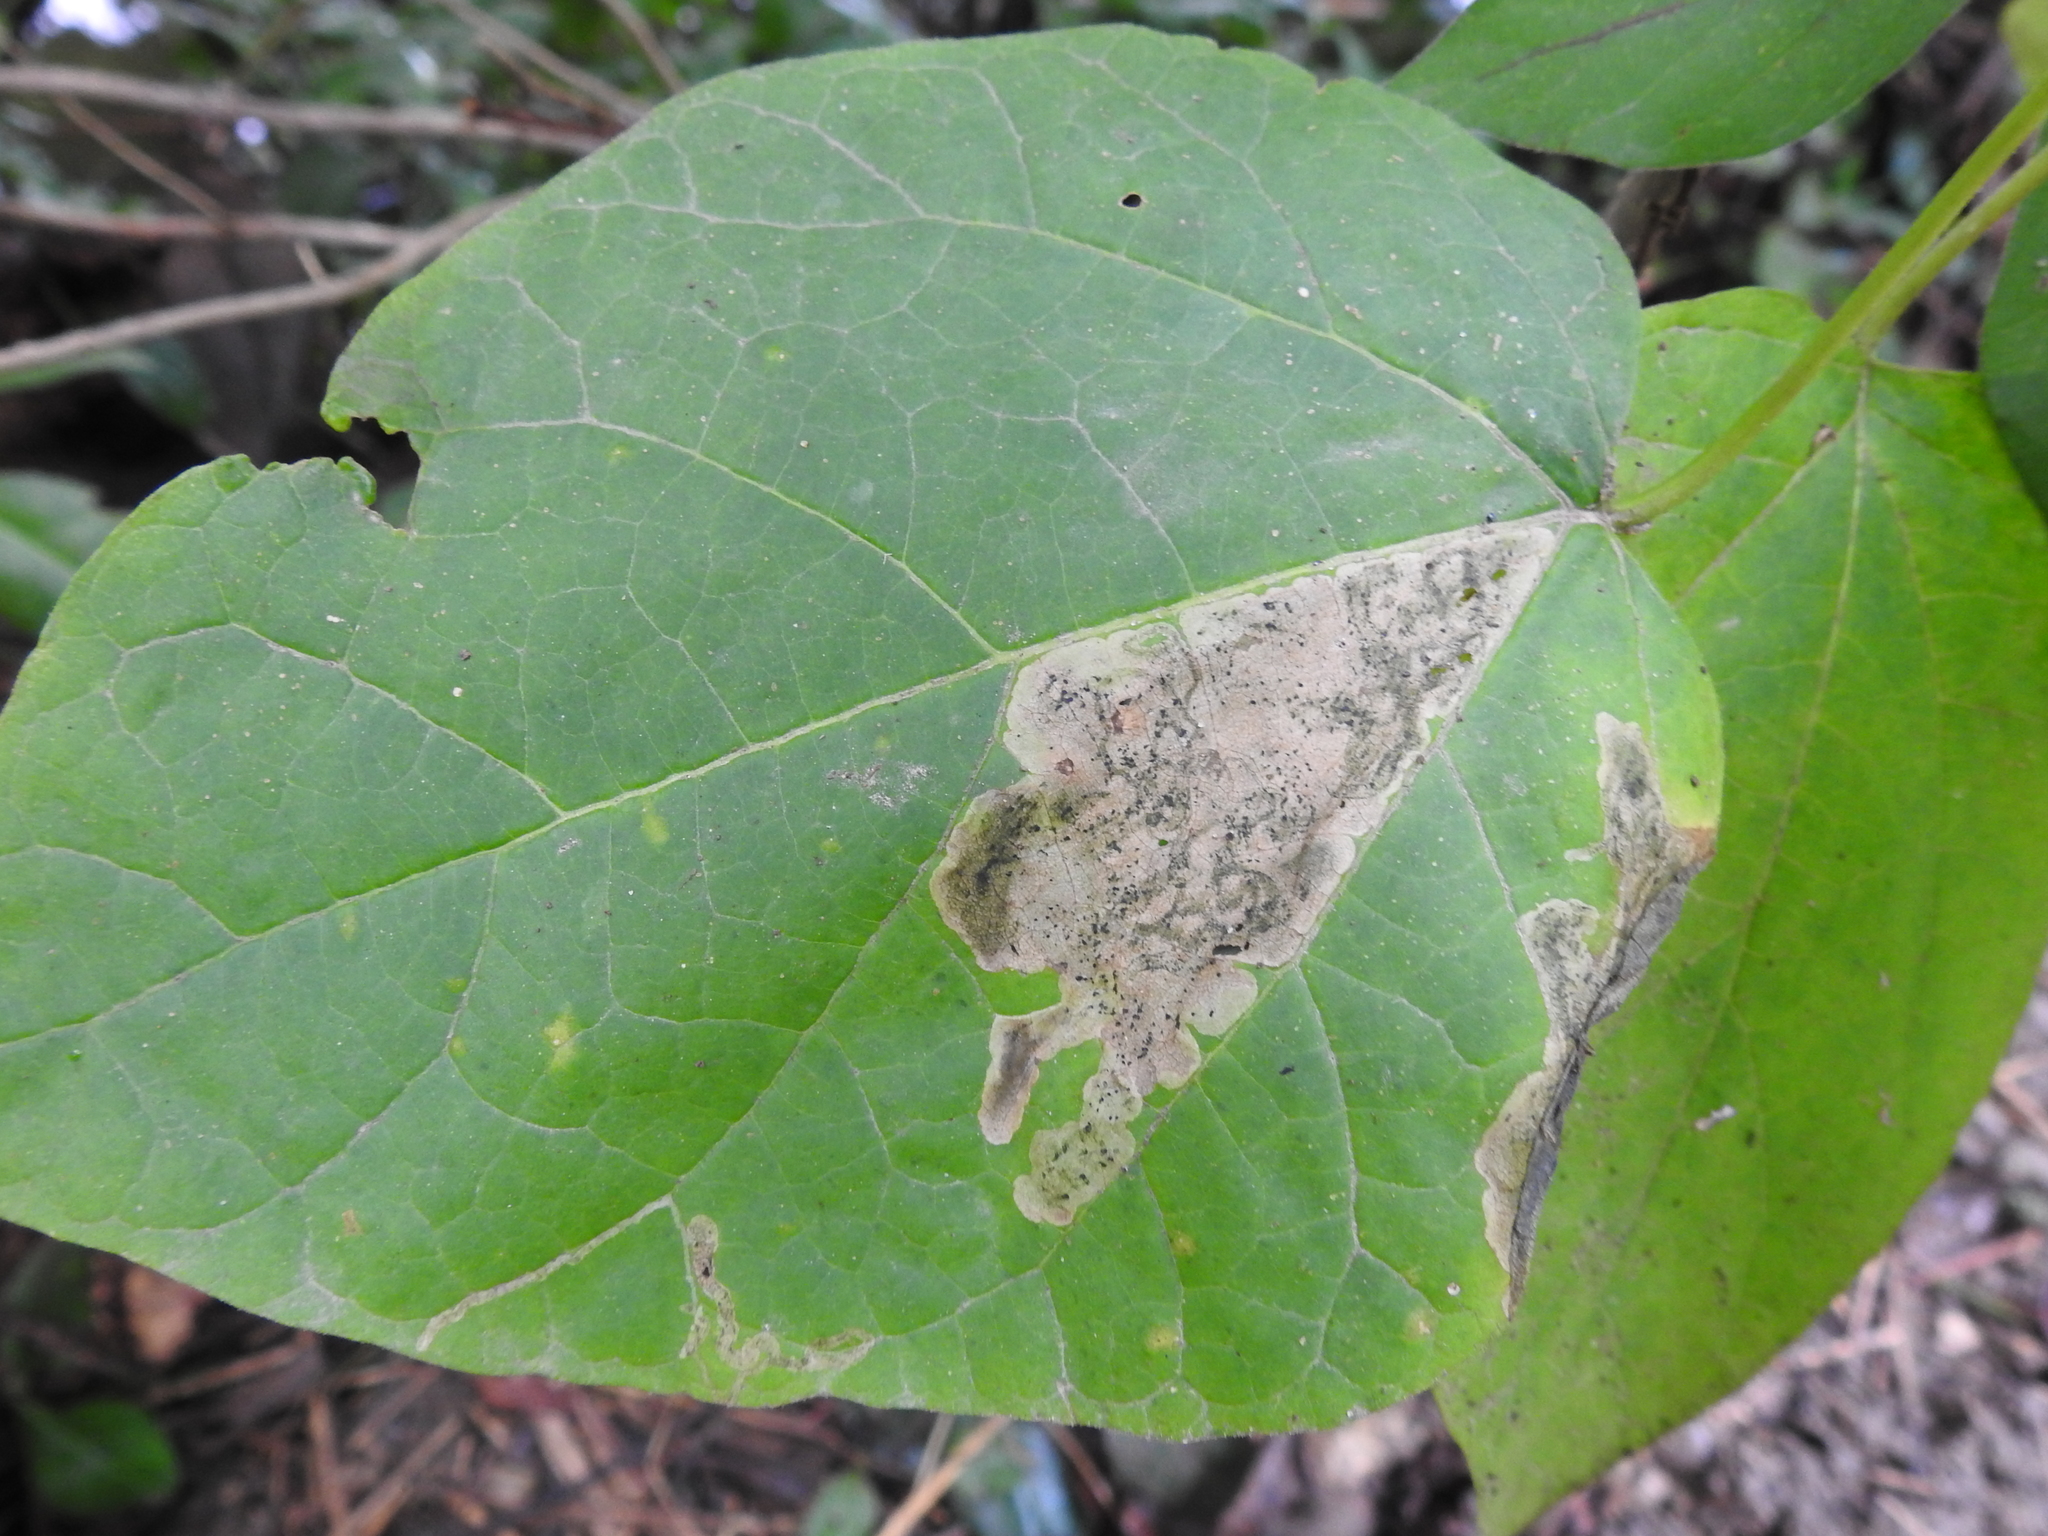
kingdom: Animalia
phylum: Arthropoda
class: Insecta
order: Diptera
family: Agromyzidae
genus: Amauromyza
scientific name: Amauromyza pleuralis
